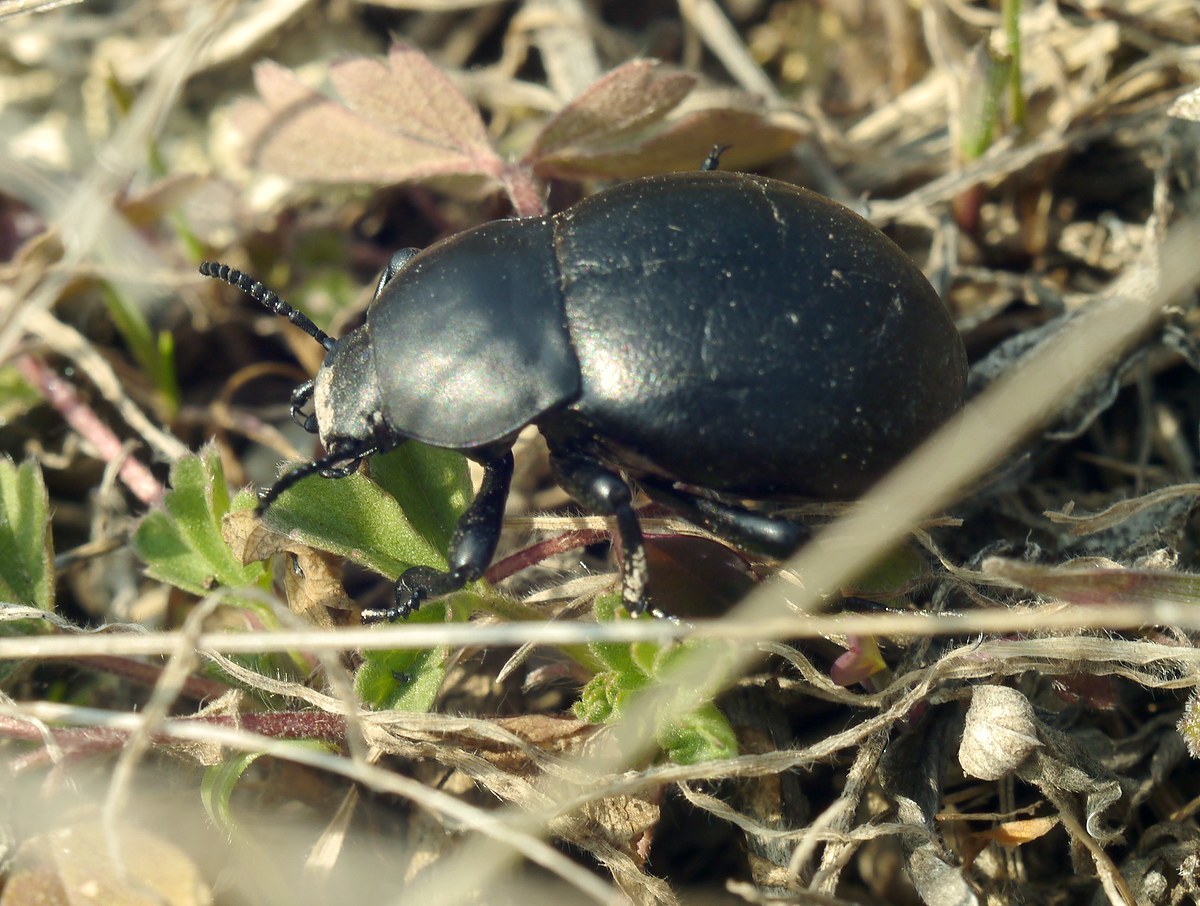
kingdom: Animalia
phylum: Arthropoda
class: Insecta
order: Coleoptera
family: Tenebrionidae
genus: Gnaptor
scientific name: Gnaptor spinimanus
